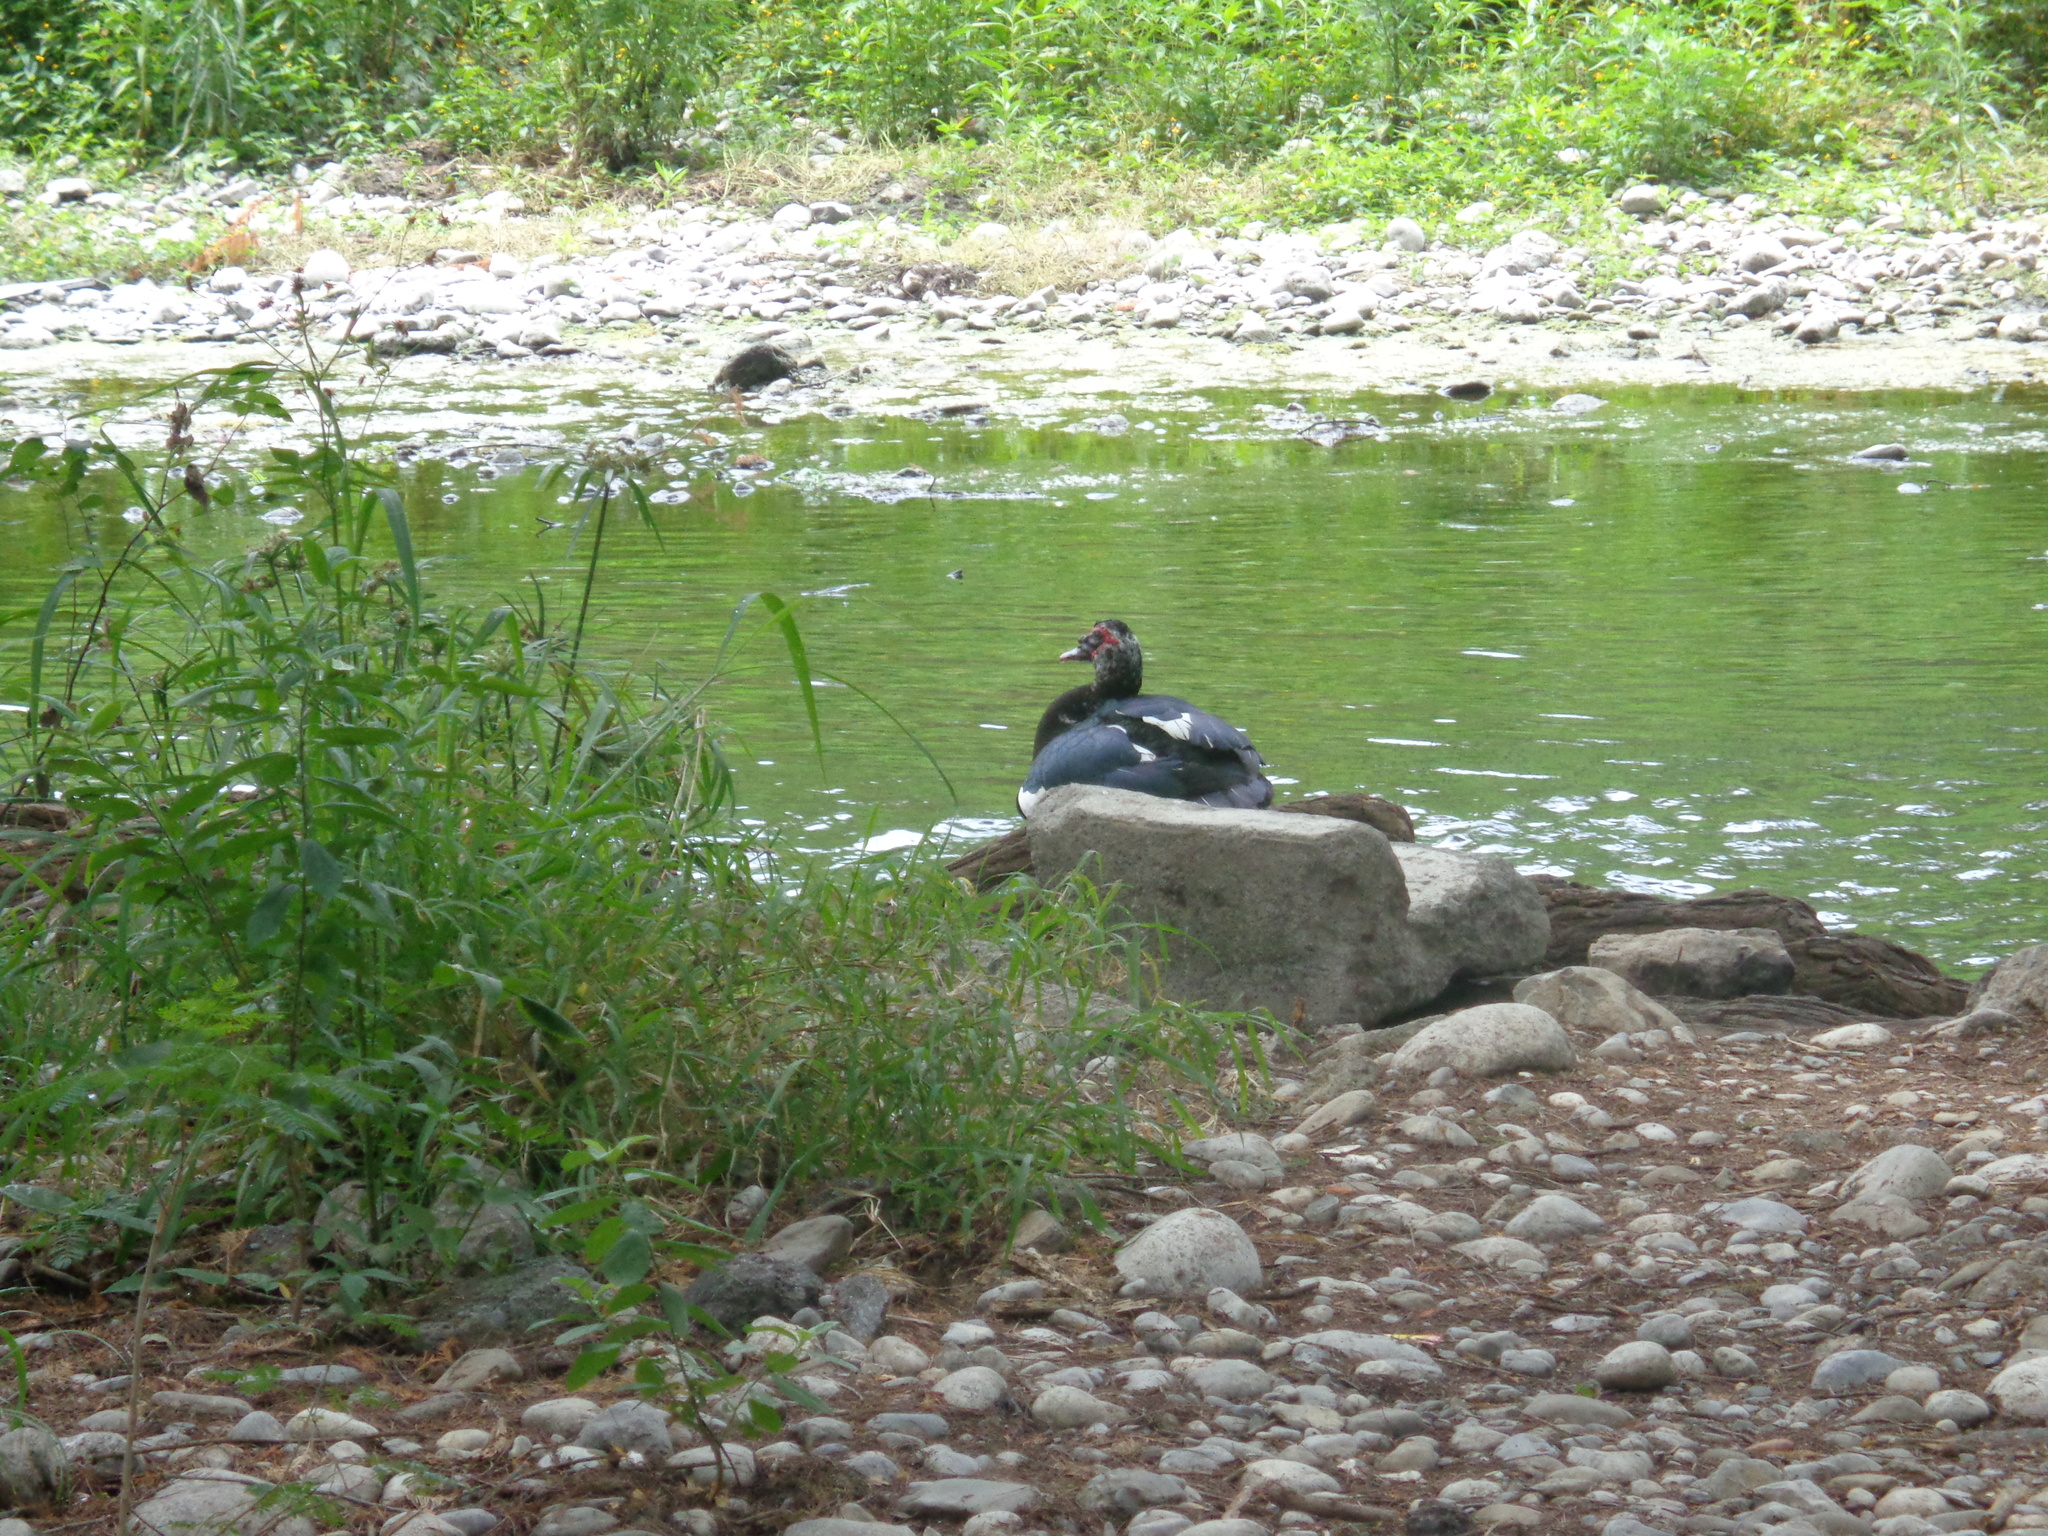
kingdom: Animalia
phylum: Chordata
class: Aves
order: Anseriformes
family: Anatidae
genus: Cairina
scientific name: Cairina moschata
